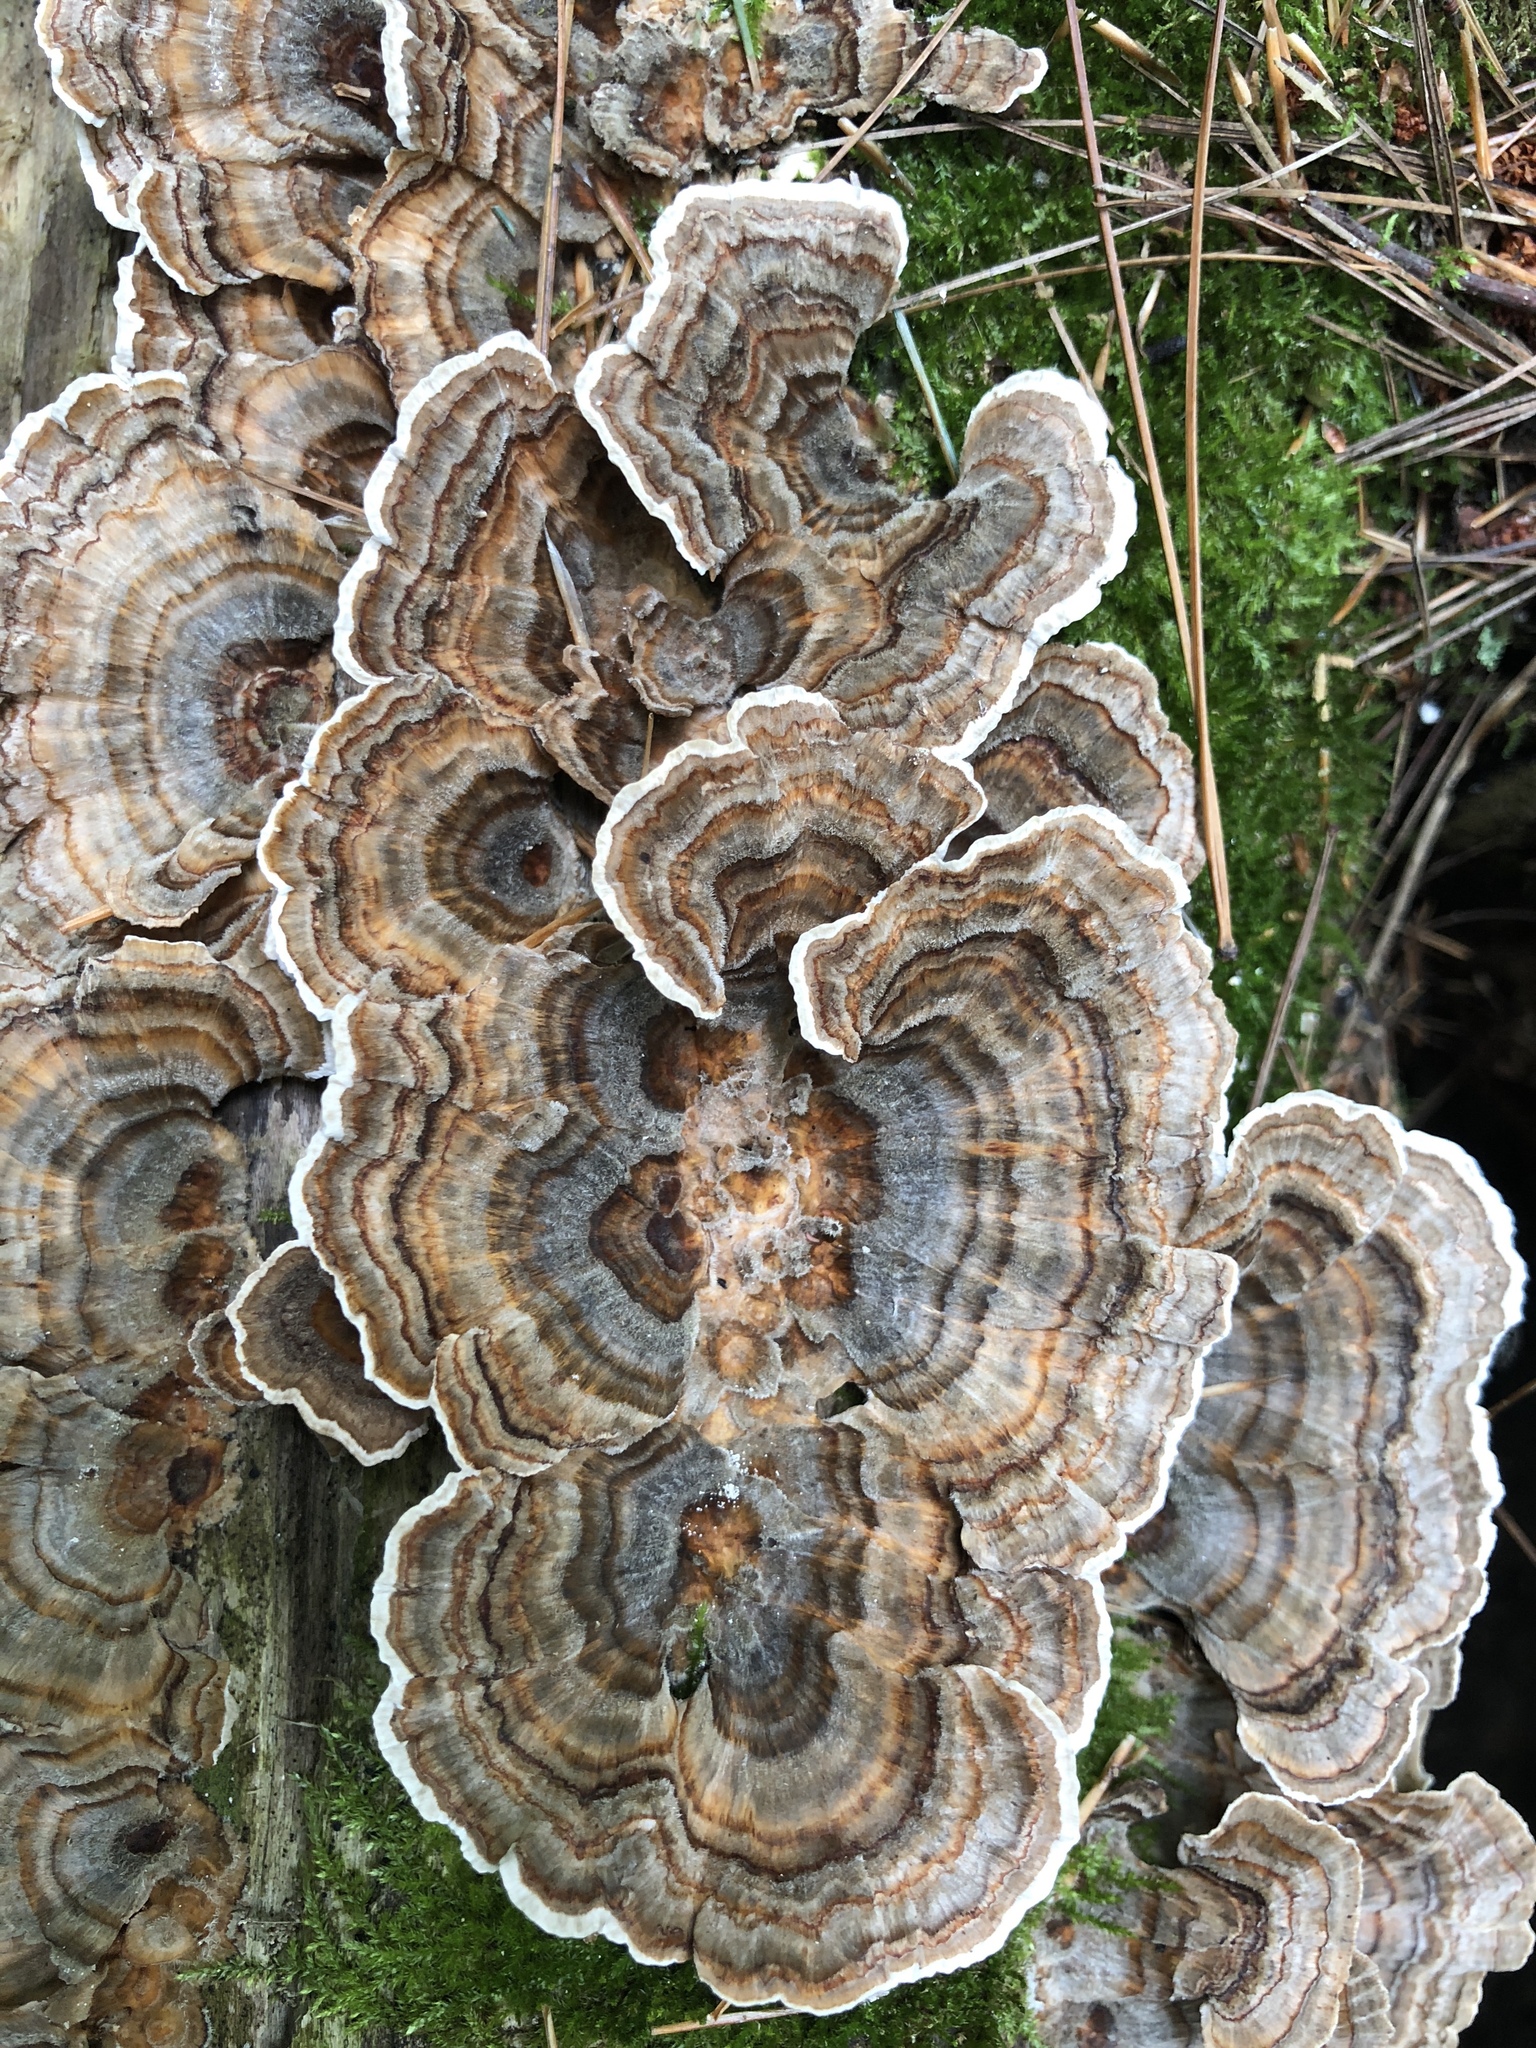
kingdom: Fungi
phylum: Basidiomycota
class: Agaricomycetes
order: Polyporales
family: Polyporaceae
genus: Trametes
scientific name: Trametes versicolor
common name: Turkeytail
